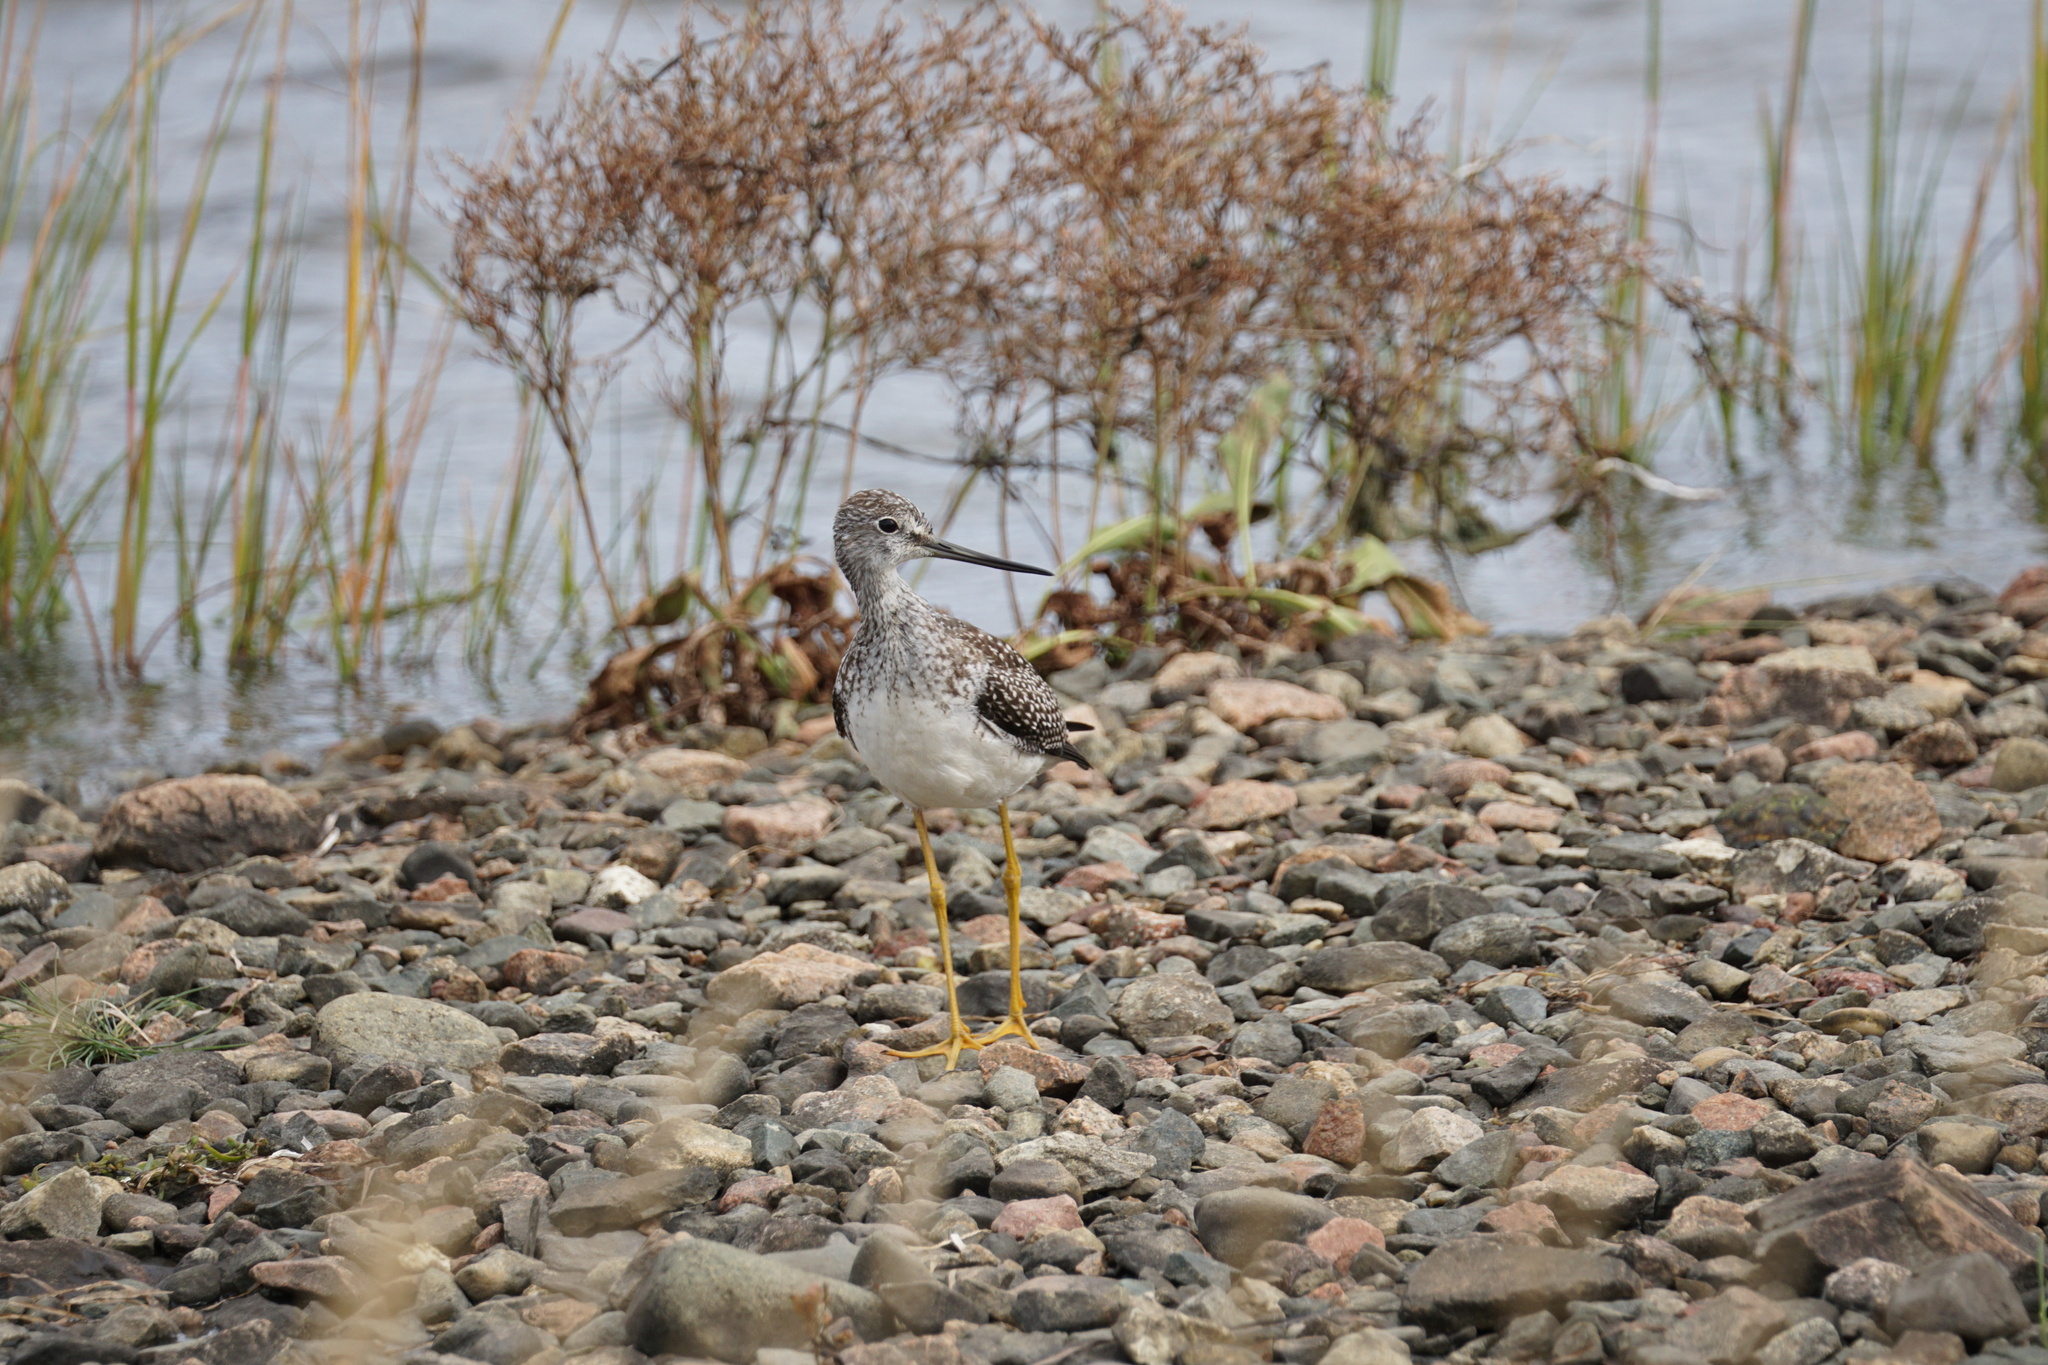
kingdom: Animalia
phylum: Chordata
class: Aves
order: Charadriiformes
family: Scolopacidae
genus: Tringa
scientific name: Tringa melanoleuca
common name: Greater yellowlegs
